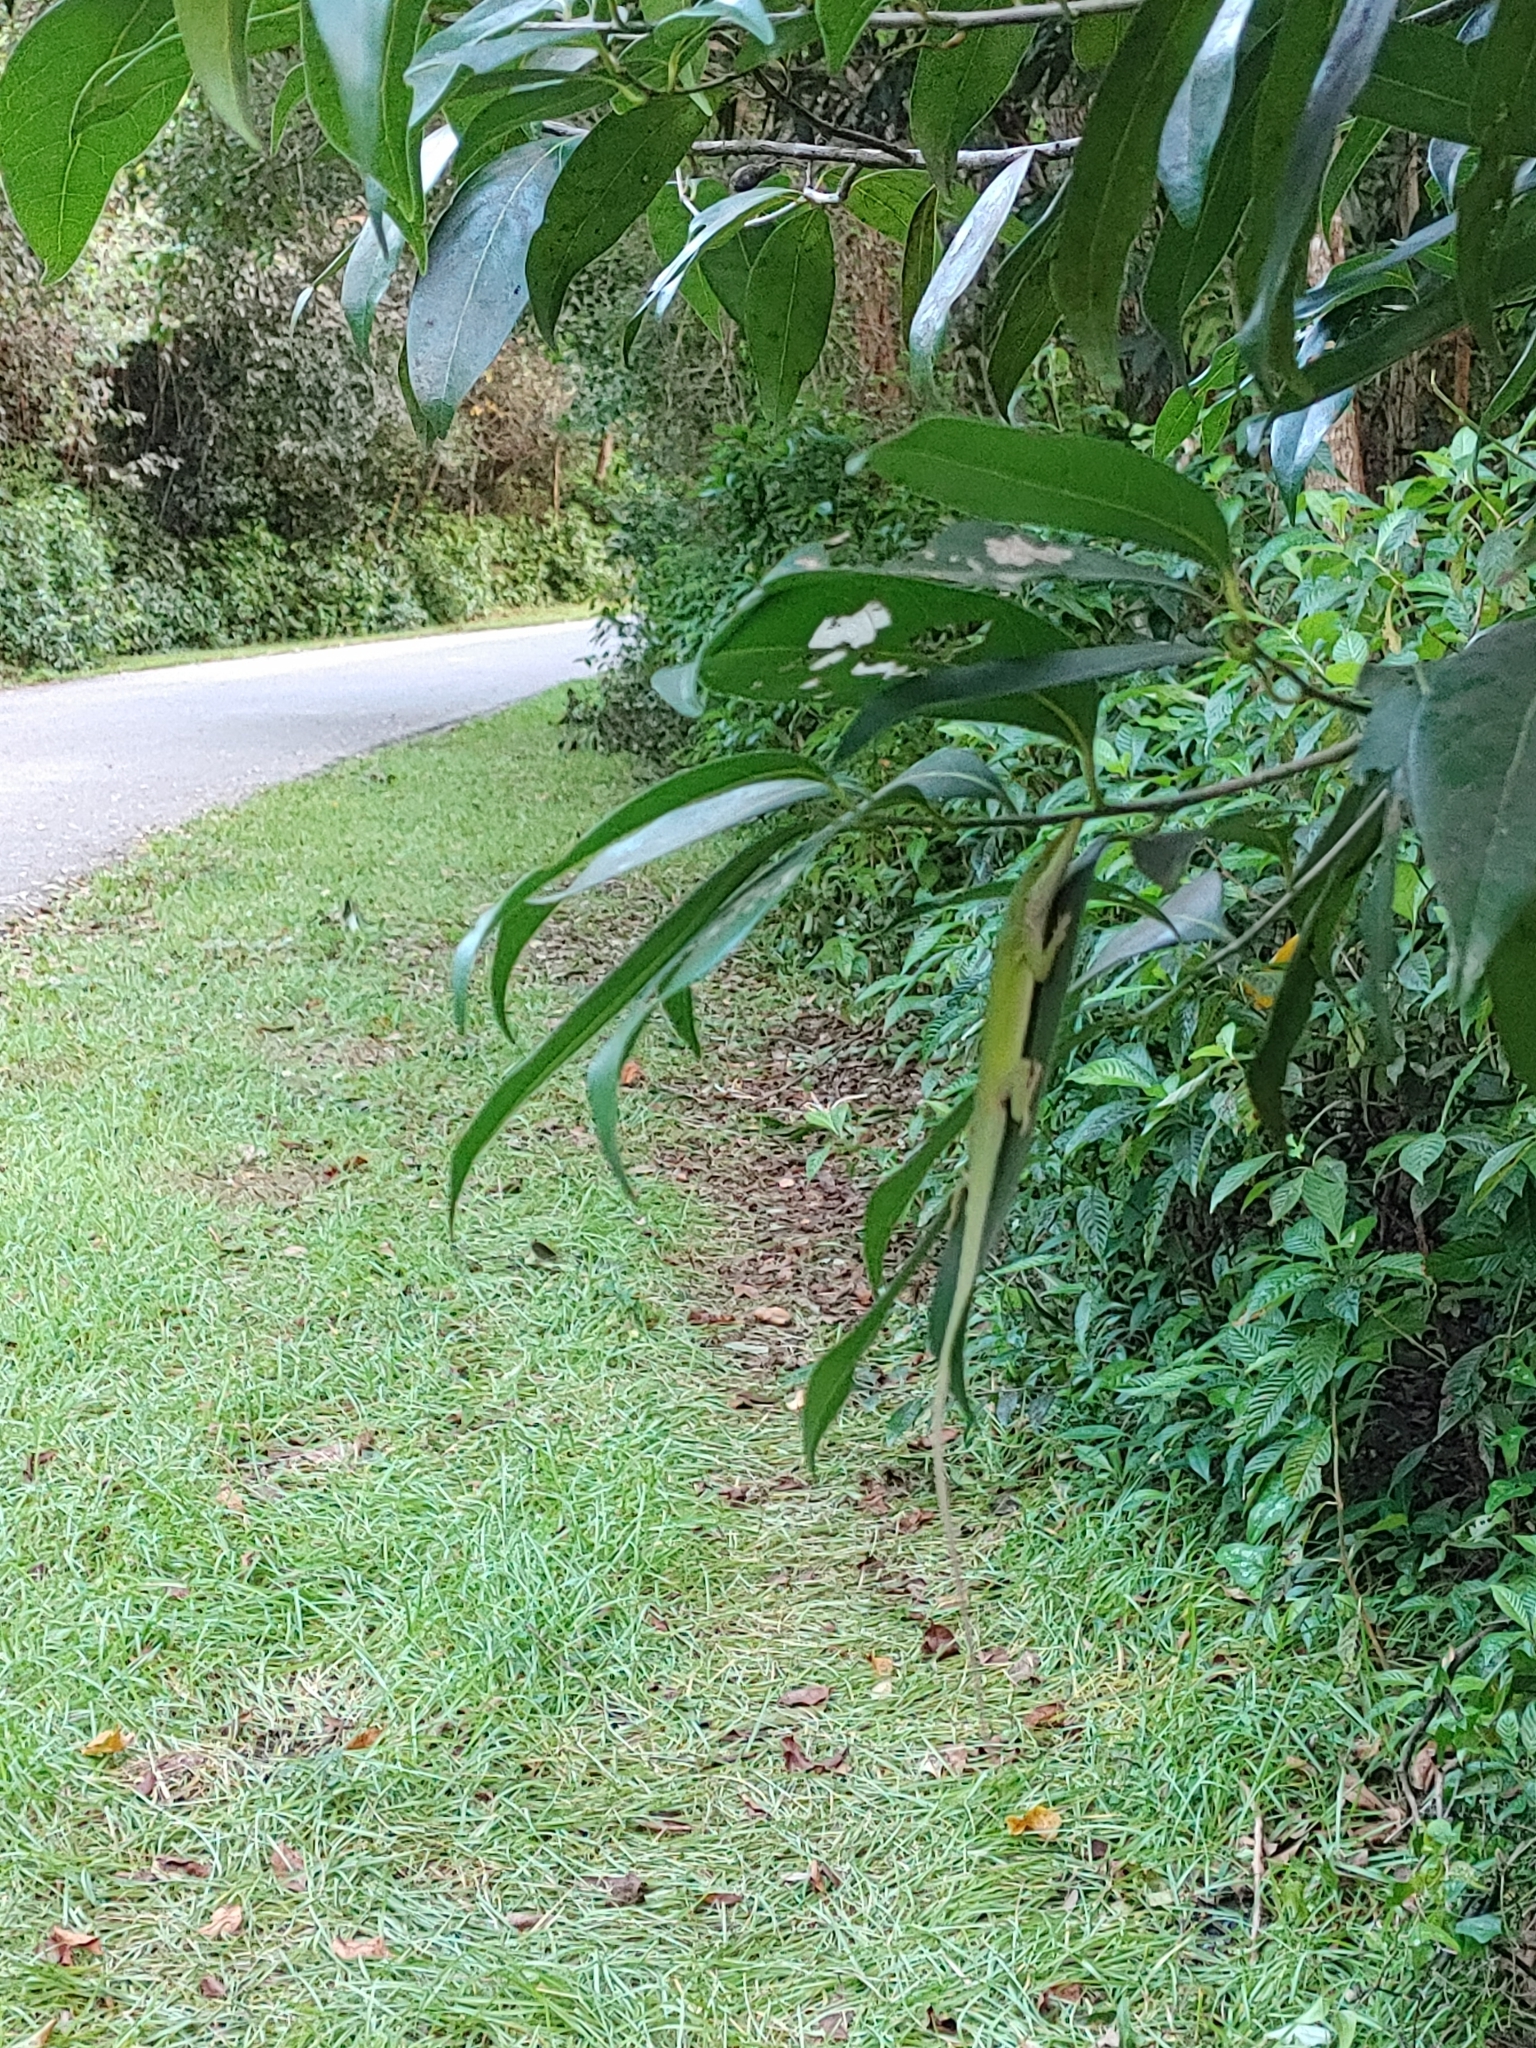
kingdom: Animalia
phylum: Chordata
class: Squamata
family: Dactyloidae
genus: Anolis
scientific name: Anolis carolinensis
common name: Green anole
